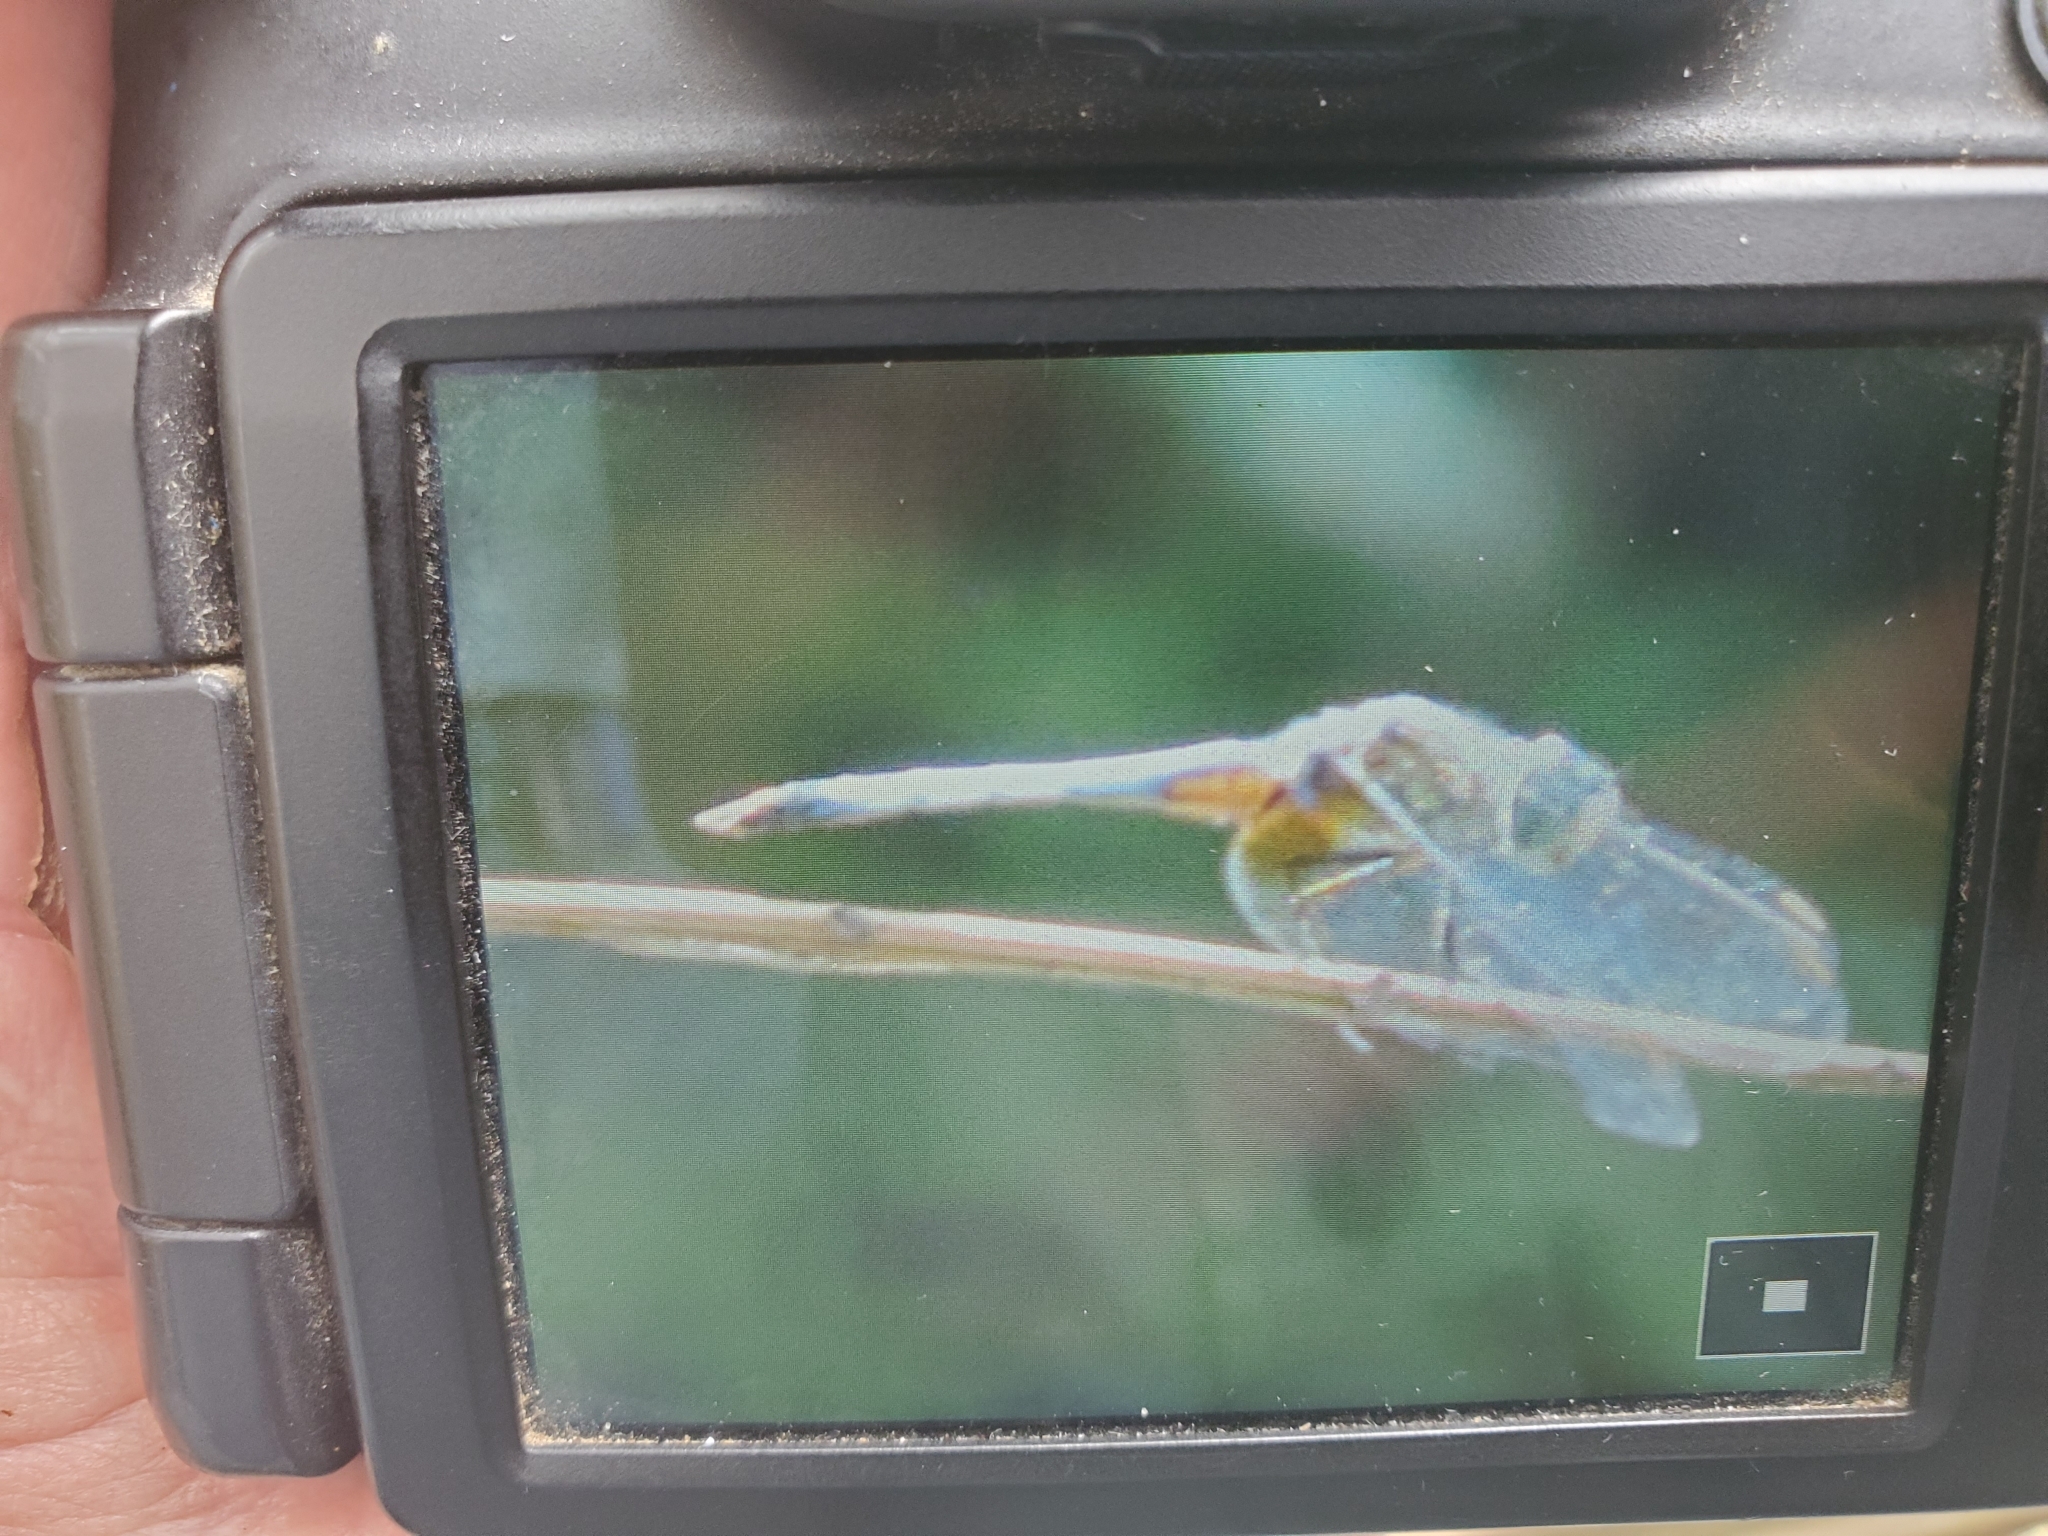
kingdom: Animalia
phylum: Arthropoda
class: Insecta
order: Odonata
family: Libellulidae
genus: Pachydiplax
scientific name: Pachydiplax longipennis
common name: Blue dasher
